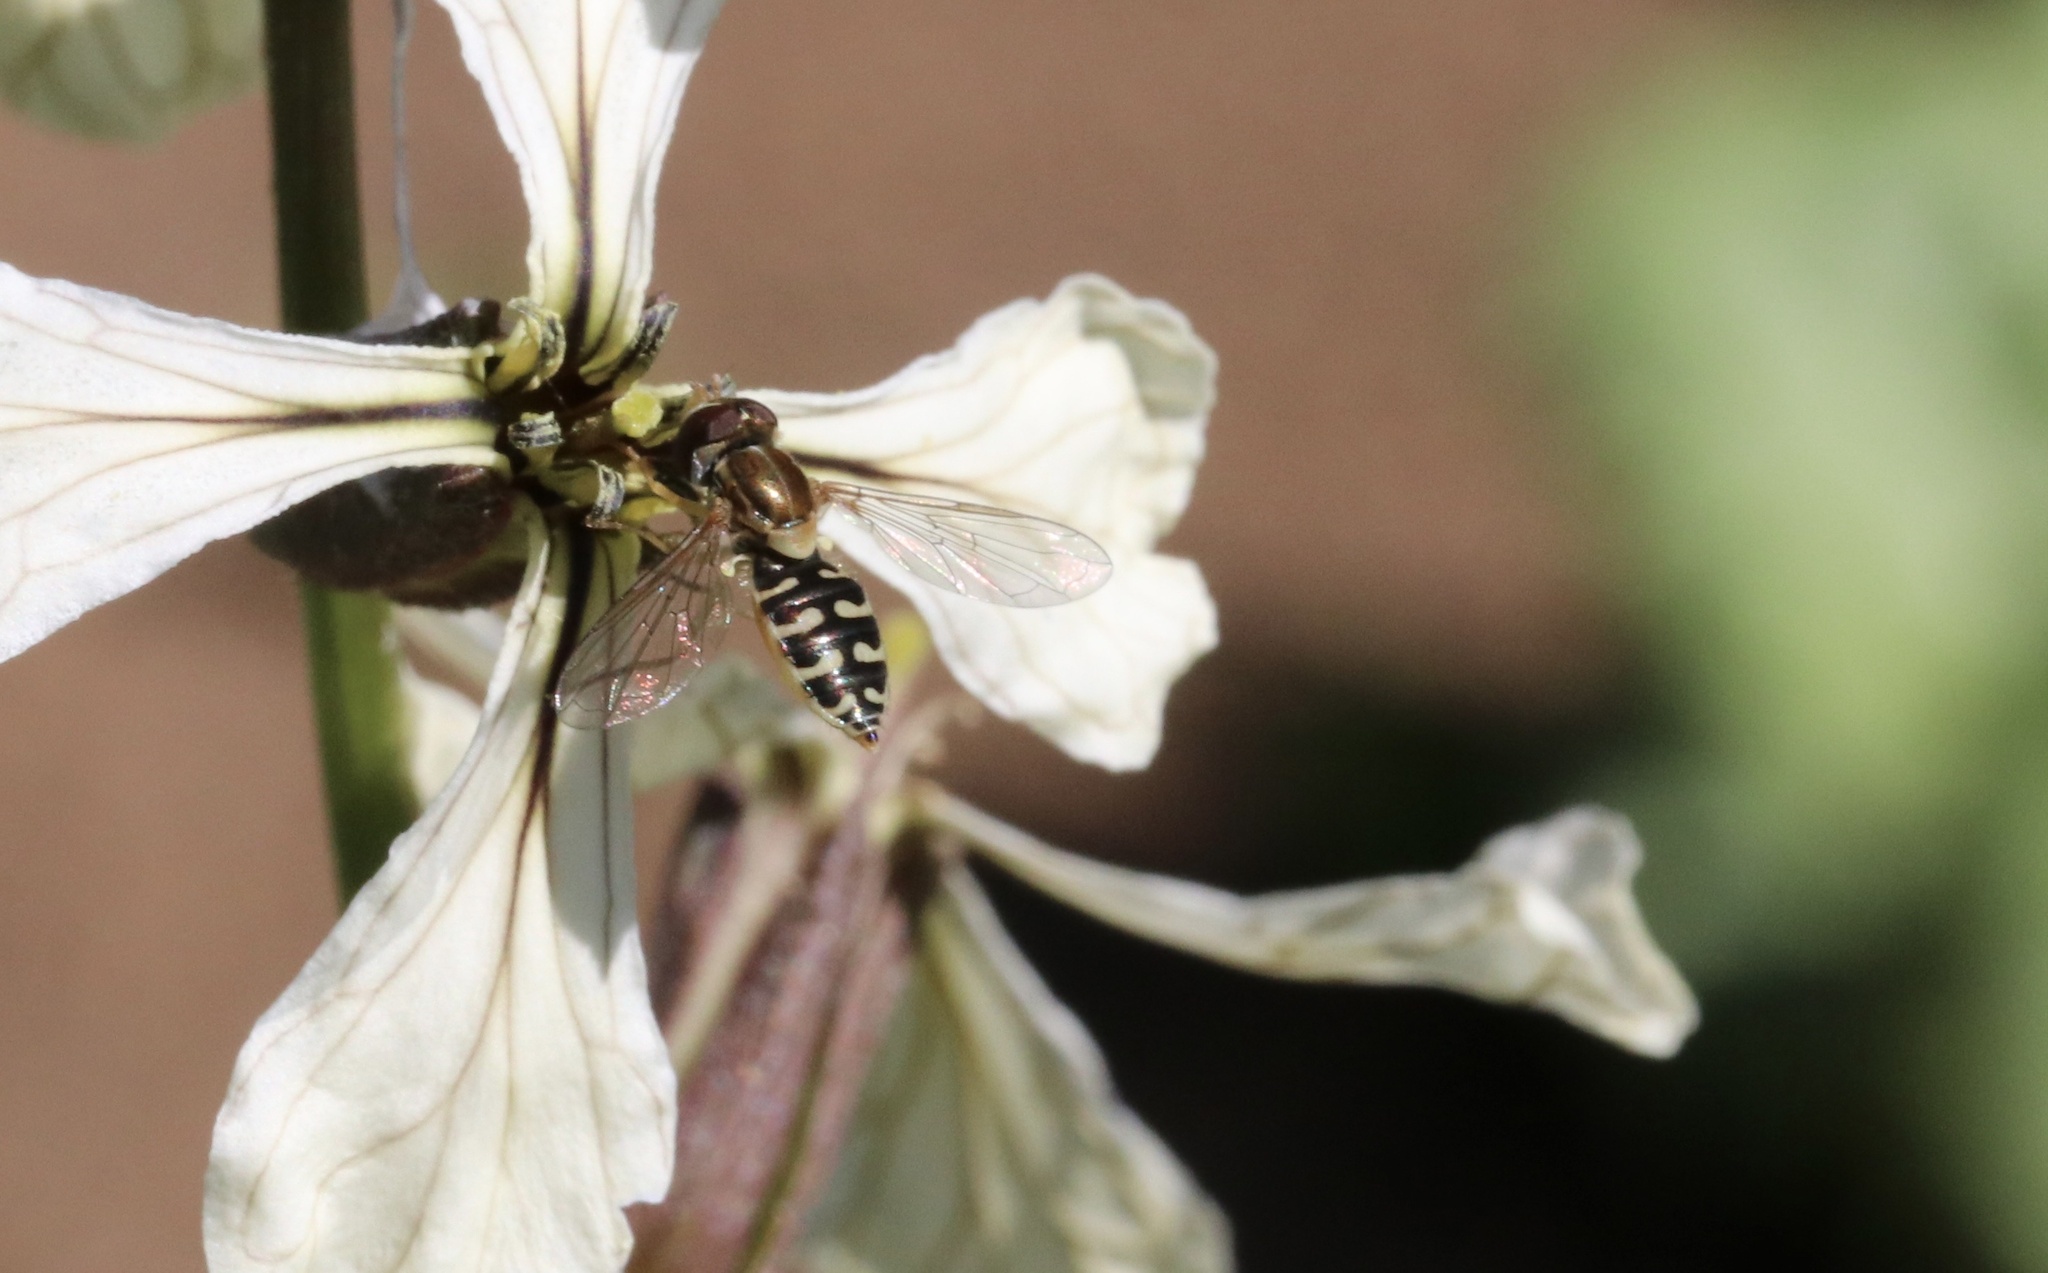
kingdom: Animalia
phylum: Arthropoda
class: Insecta
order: Diptera
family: Syrphidae
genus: Toxomerus
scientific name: Toxomerus vertebratus
